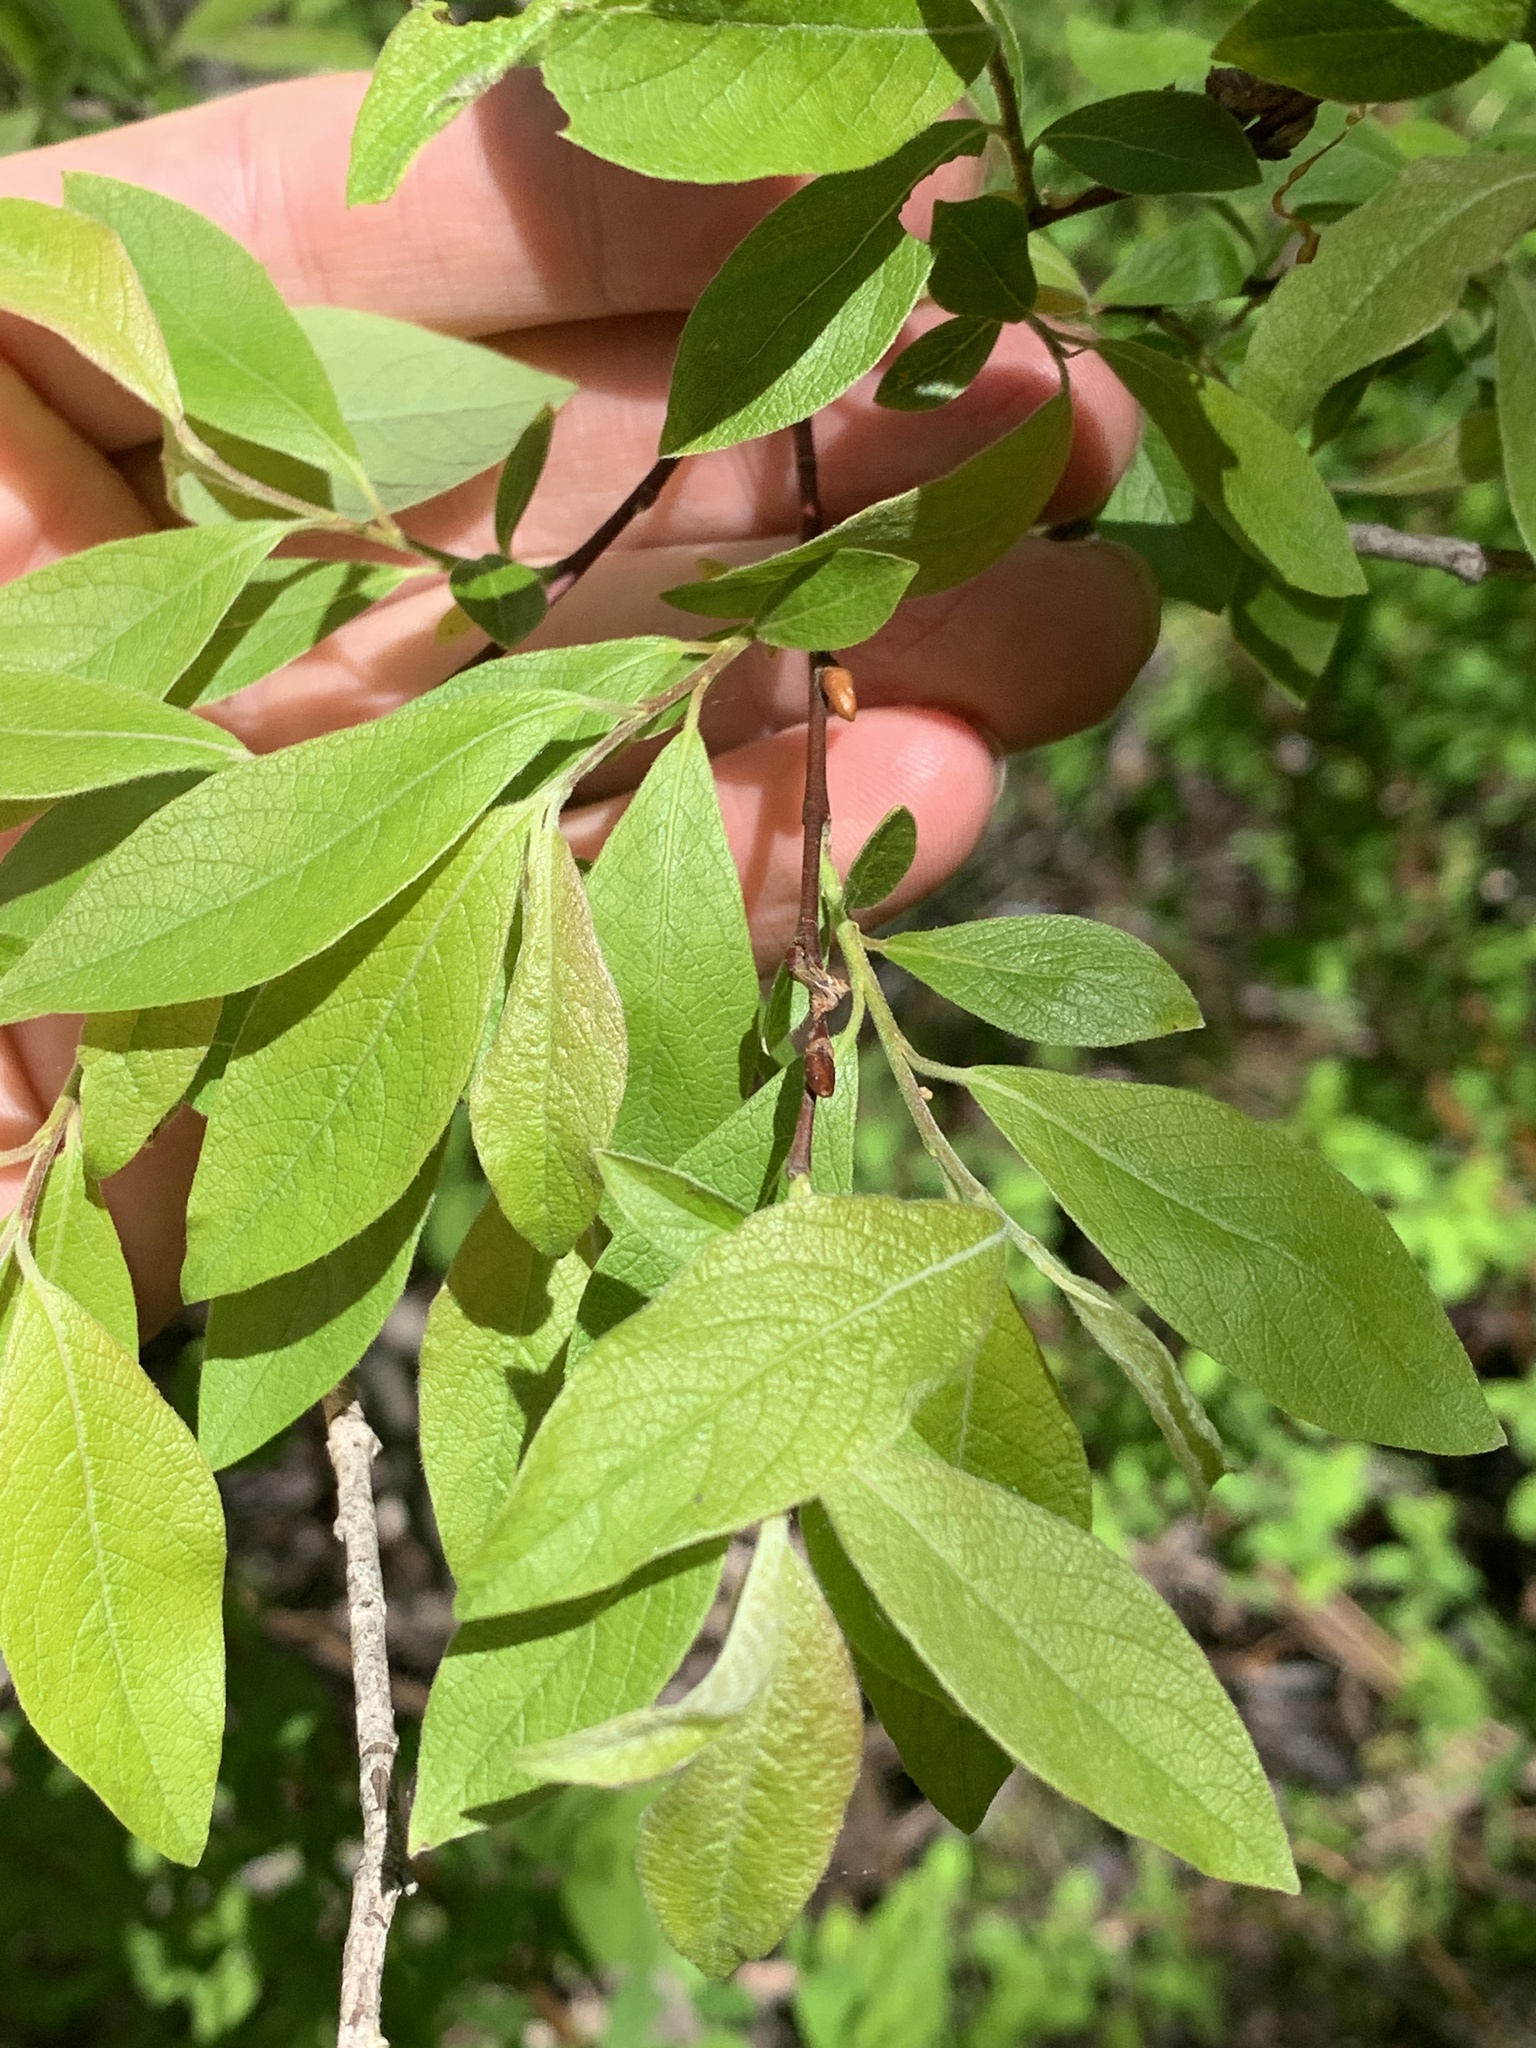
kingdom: Plantae
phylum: Tracheophyta
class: Magnoliopsida
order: Malpighiales
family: Salicaceae
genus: Salix
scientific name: Salix bebbiana
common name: Bebb's willow
